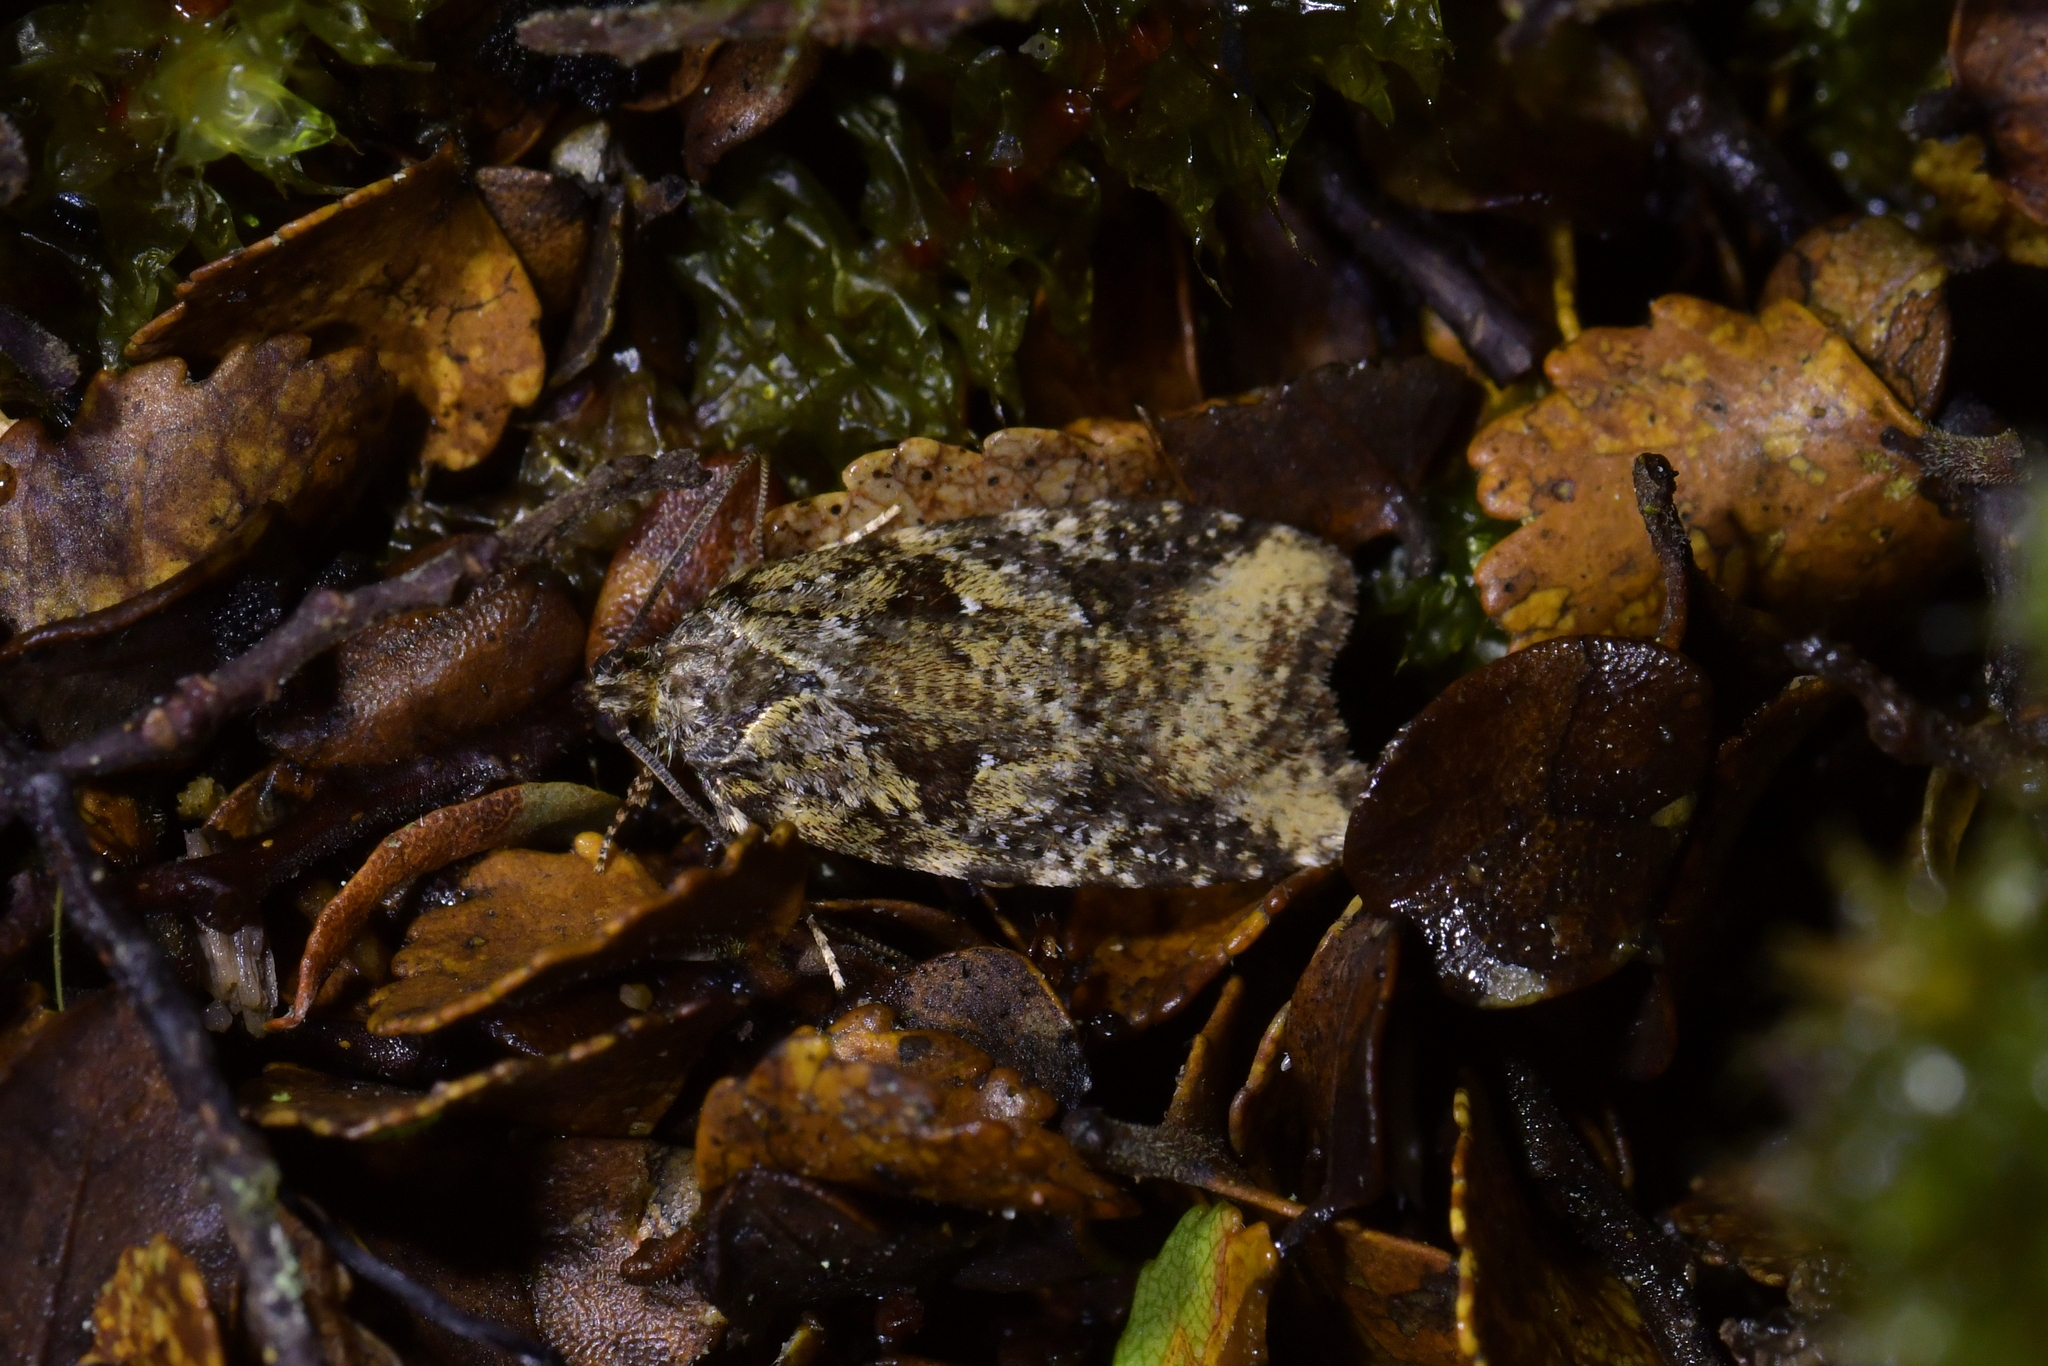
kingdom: Animalia
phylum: Arthropoda
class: Insecta
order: Lepidoptera
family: Oecophoridae
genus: Proteodes
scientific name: Proteodes profunda
